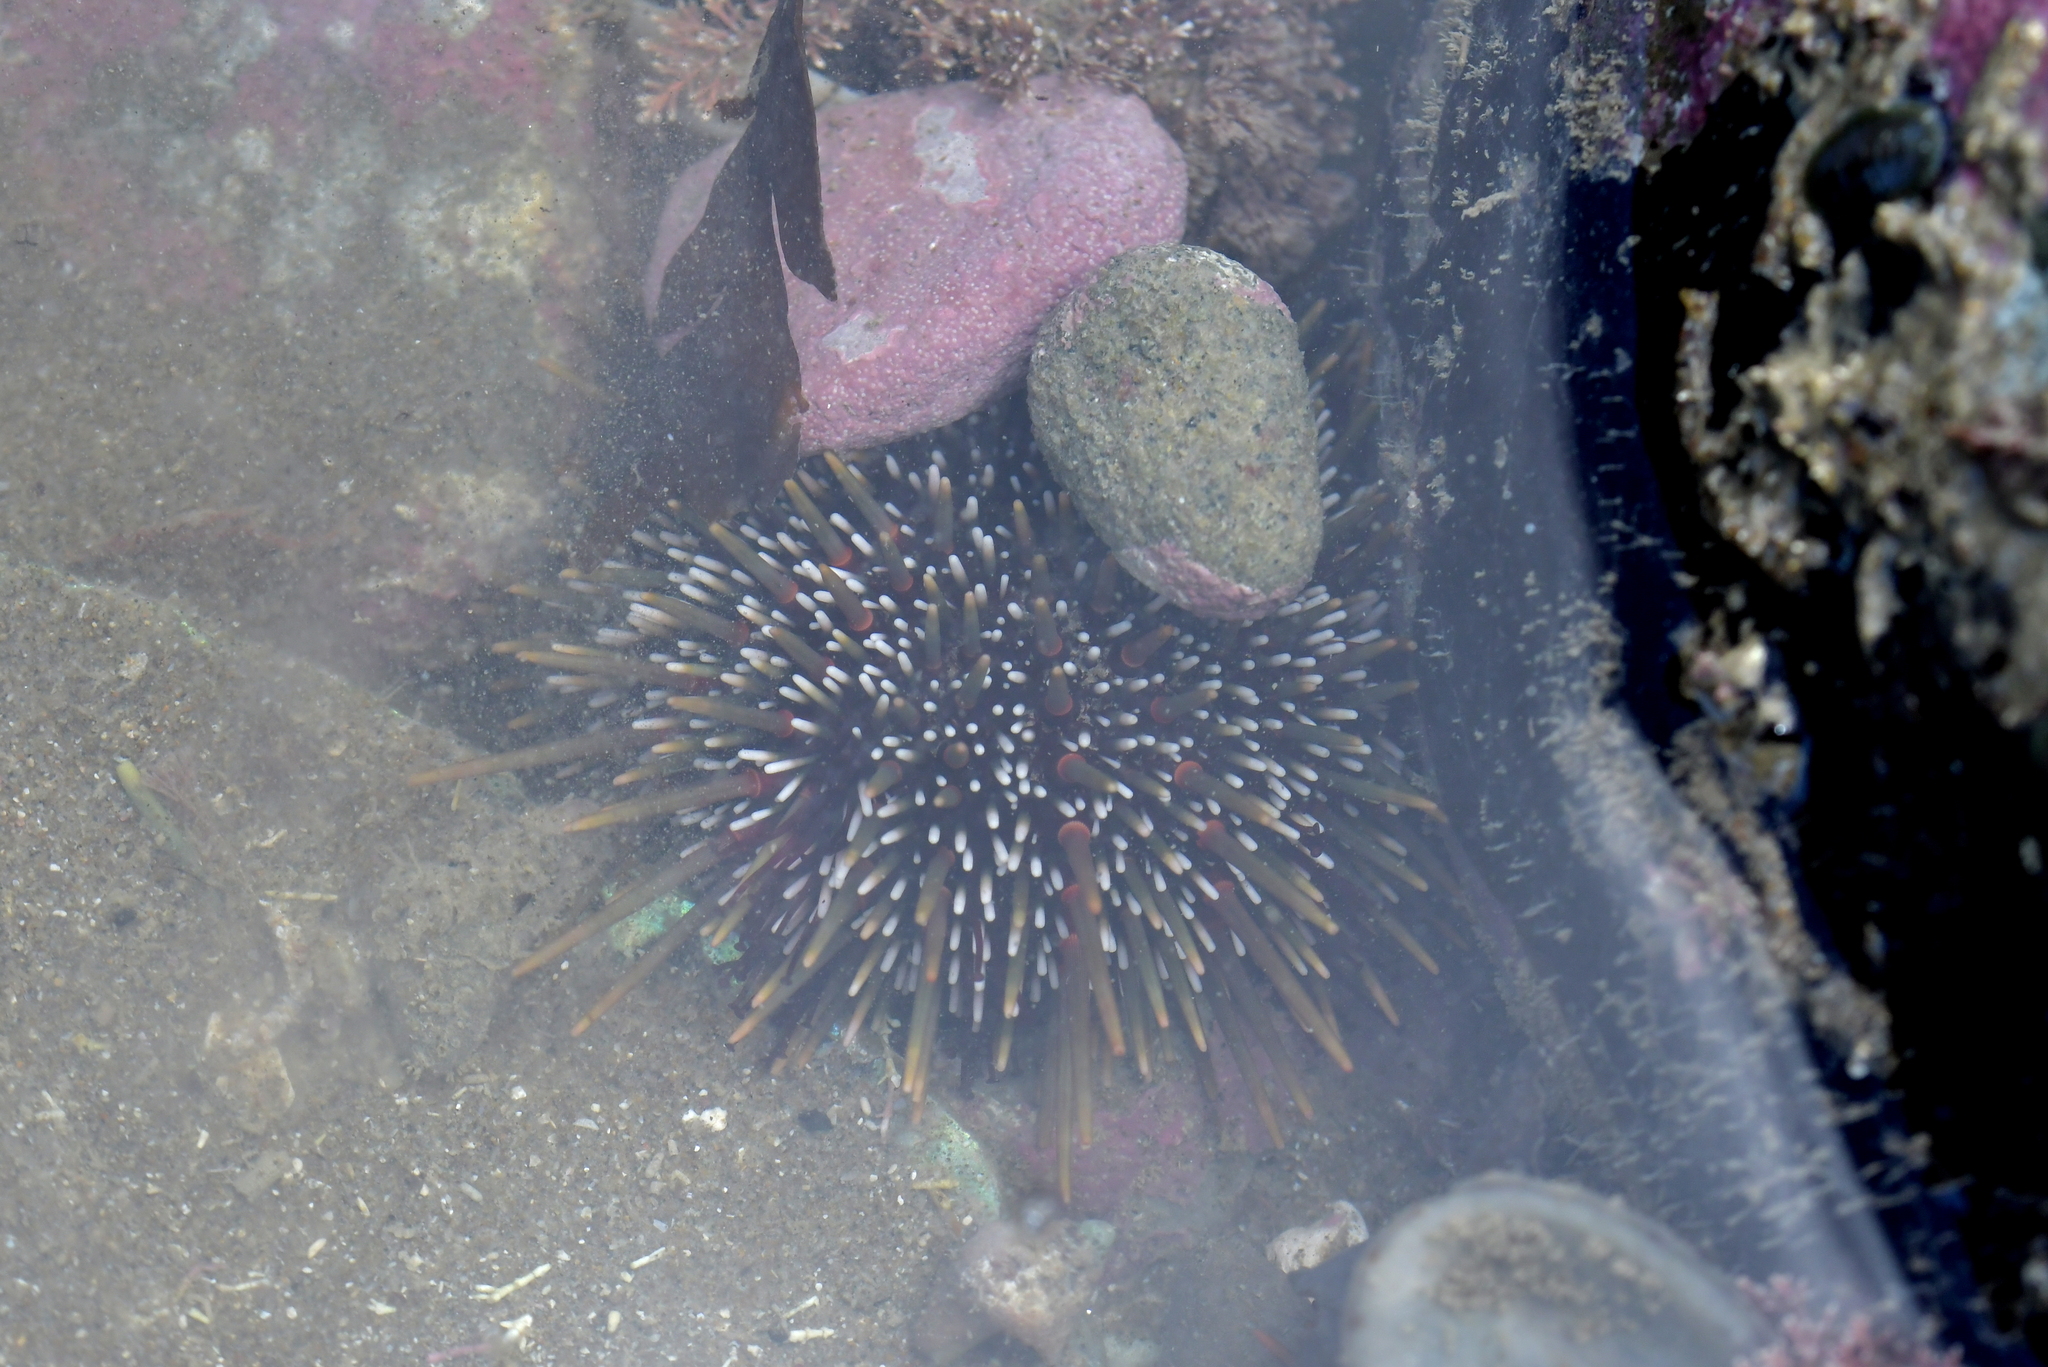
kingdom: Animalia
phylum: Echinodermata
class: Echinoidea
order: Camarodonta
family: Echinometridae
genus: Evechinus
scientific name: Evechinus chloroticus
